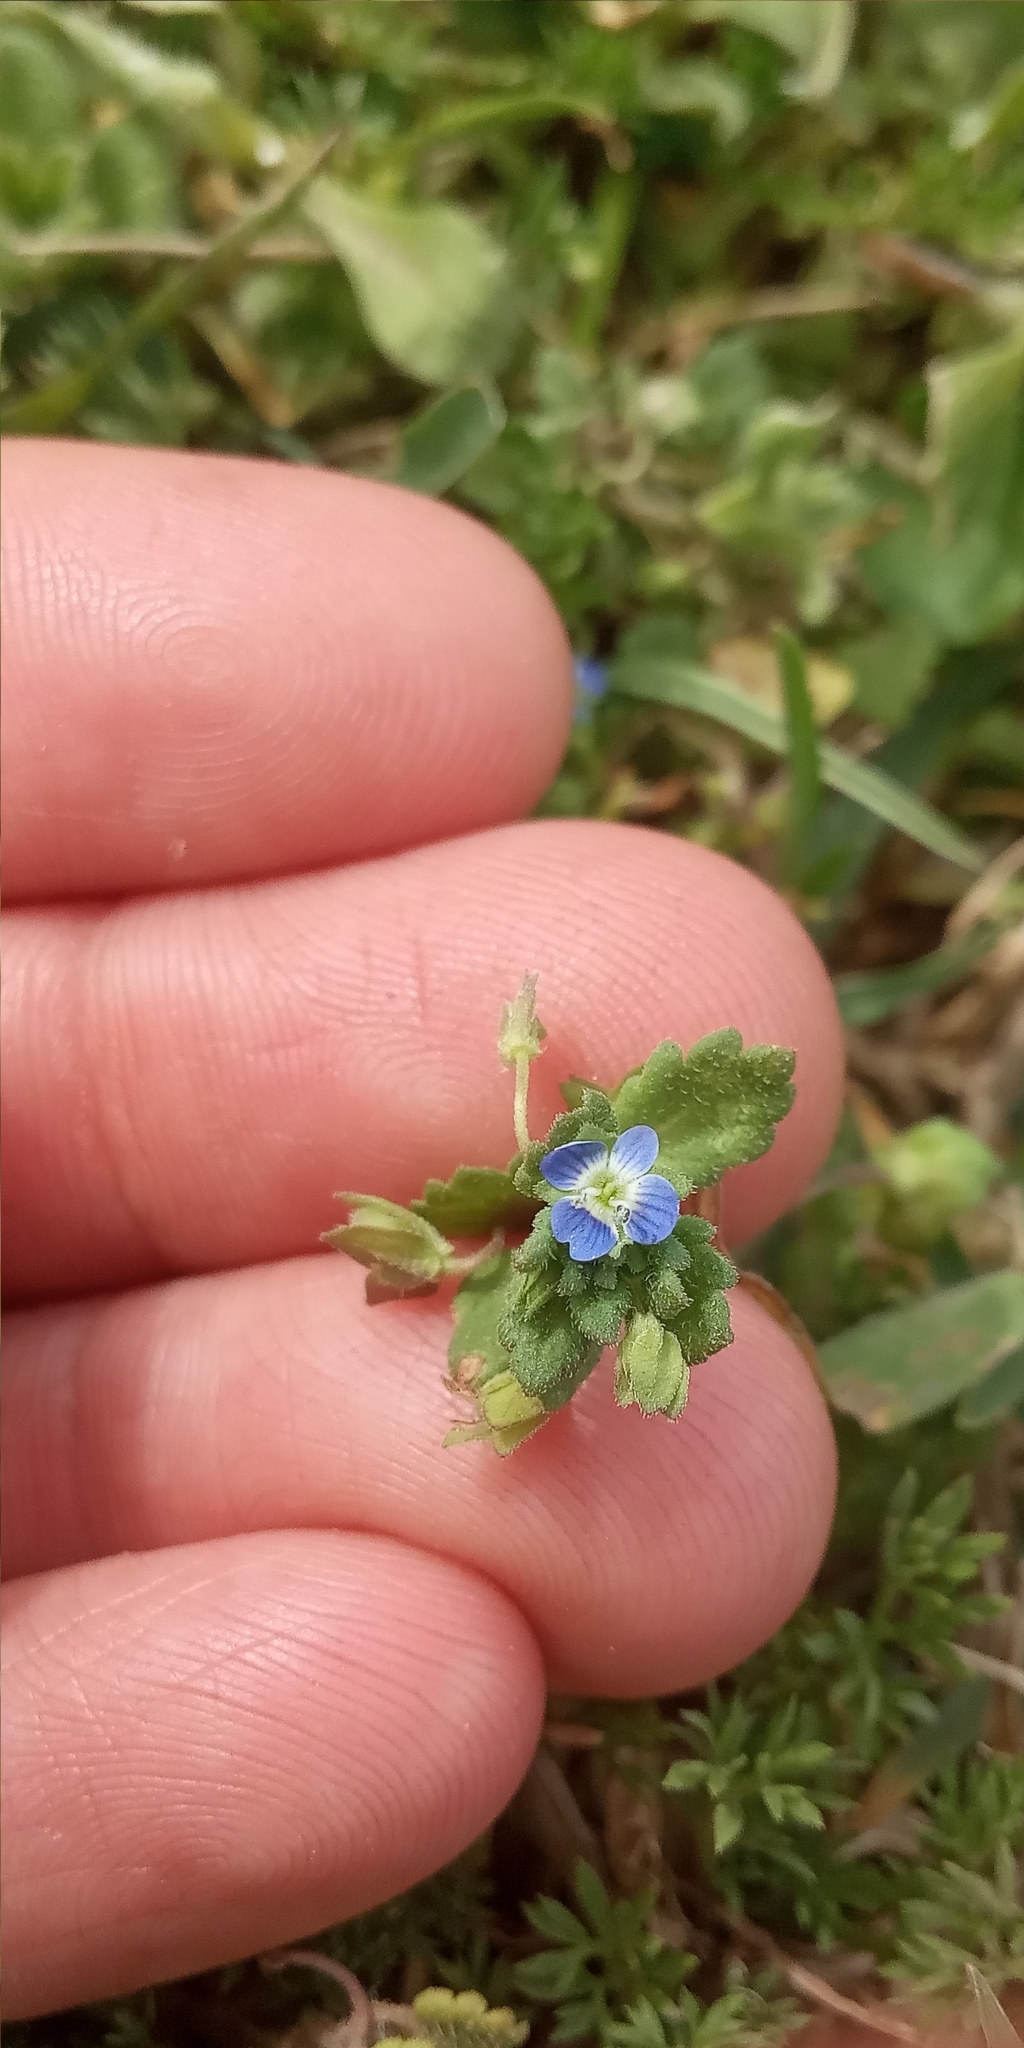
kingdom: Plantae
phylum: Tracheophyta
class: Magnoliopsida
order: Lamiales
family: Plantaginaceae
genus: Veronica
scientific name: Veronica persica
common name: Common field-speedwell
